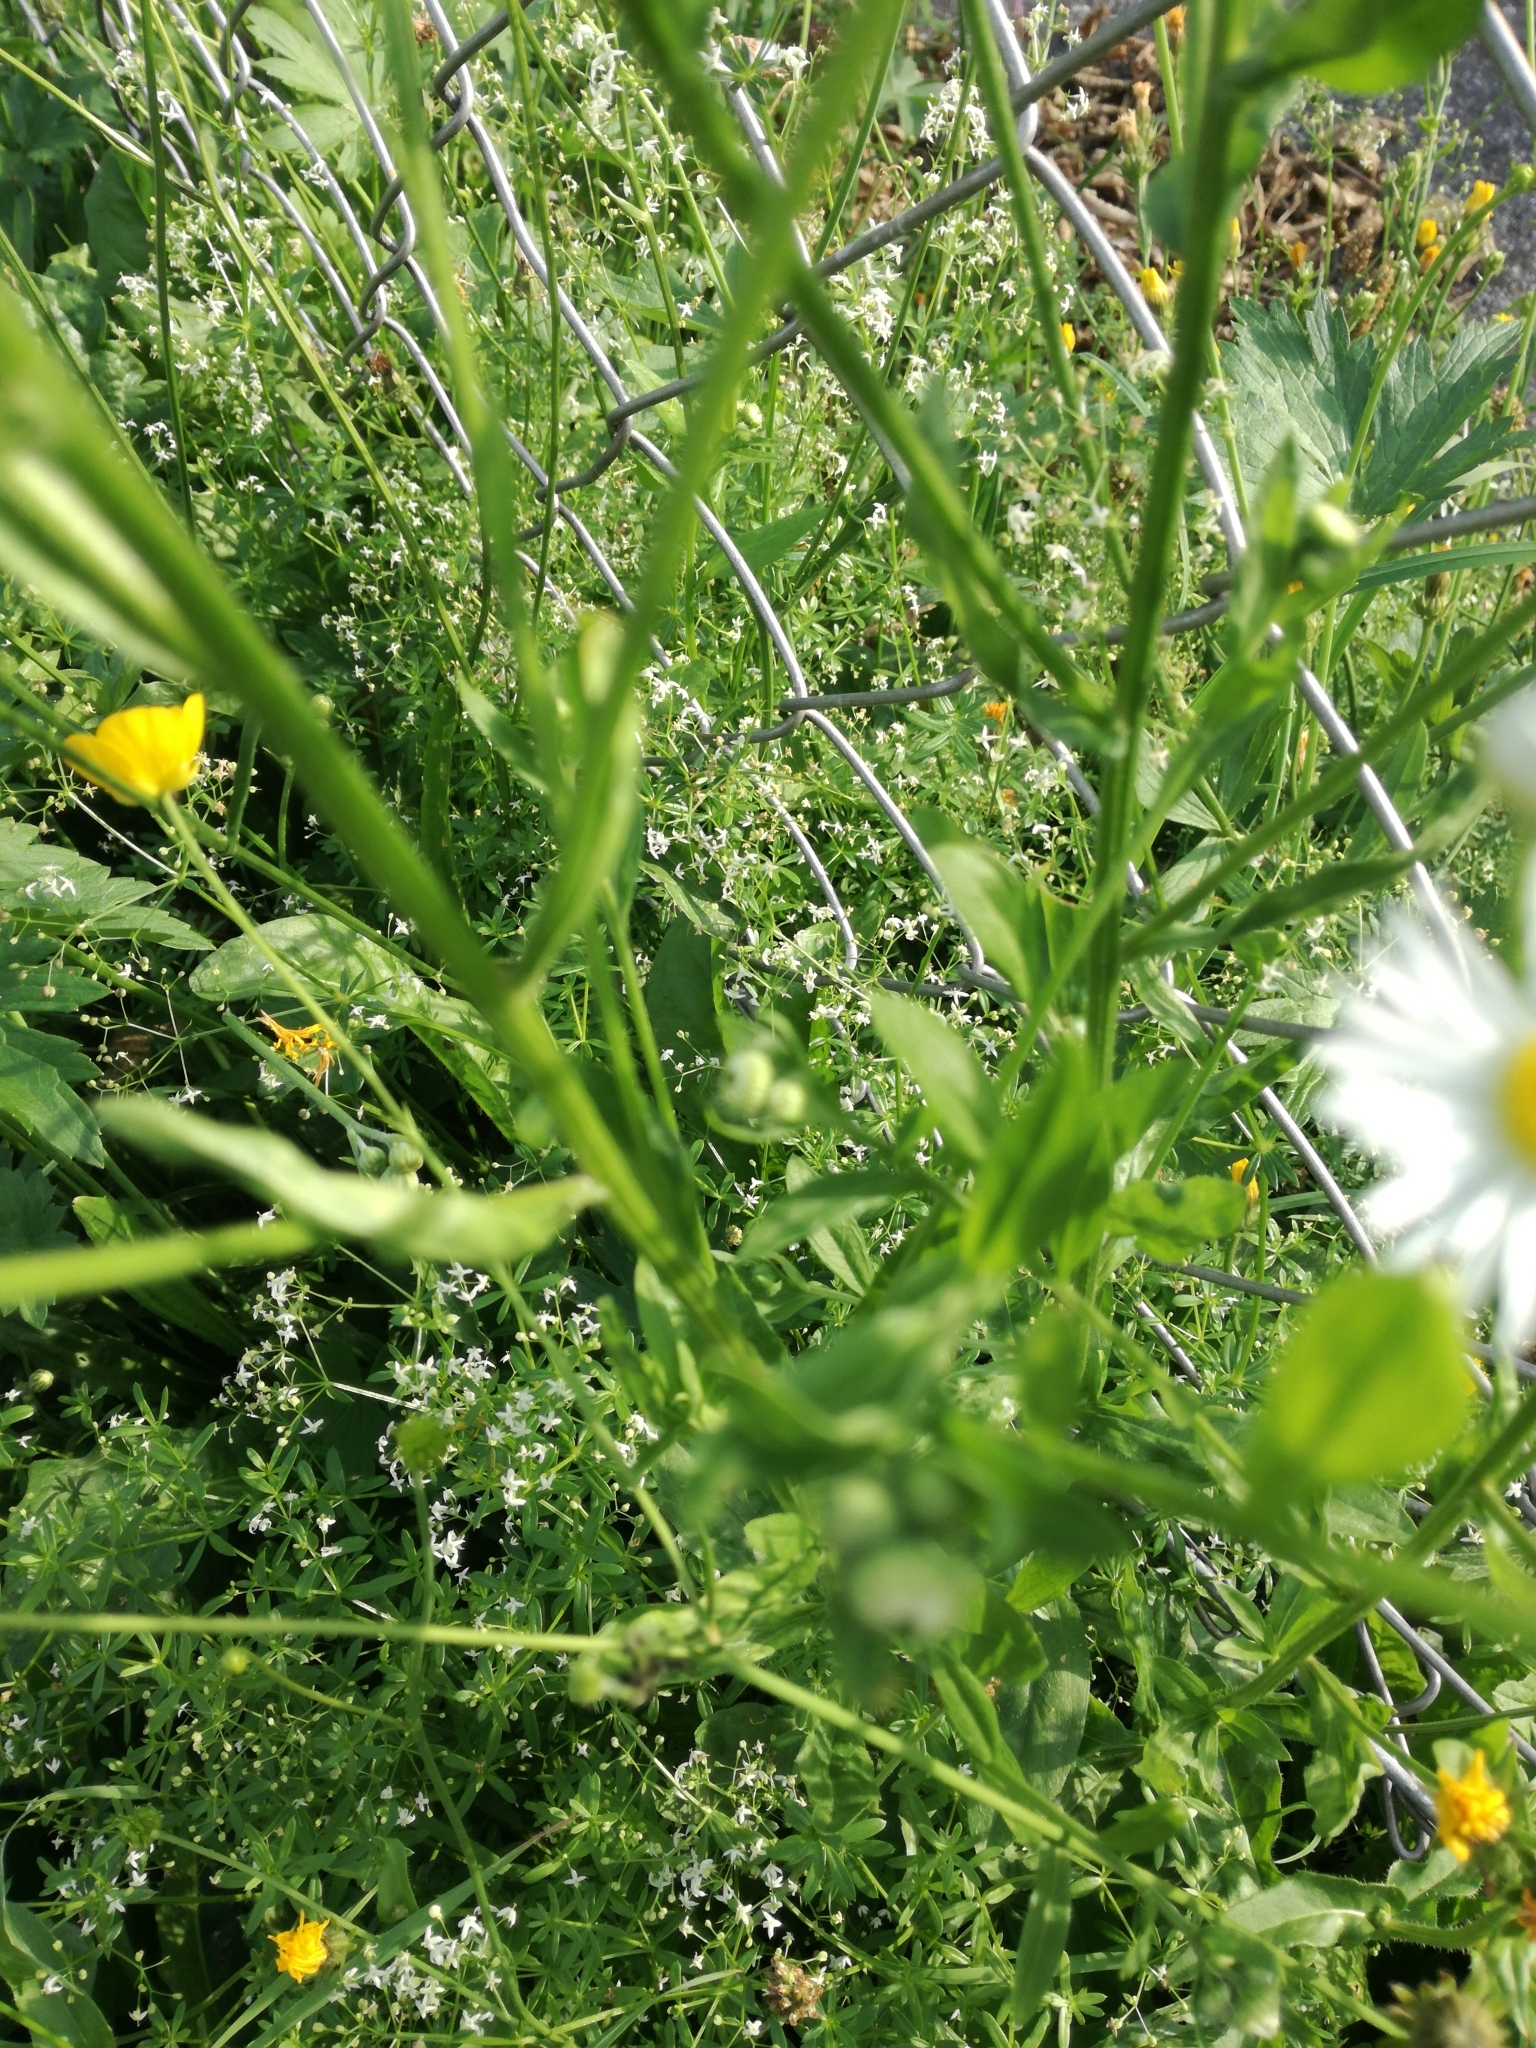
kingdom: Plantae
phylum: Tracheophyta
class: Magnoliopsida
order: Asterales
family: Asteraceae
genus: Erigeron
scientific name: Erigeron annuus
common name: Tall fleabane
